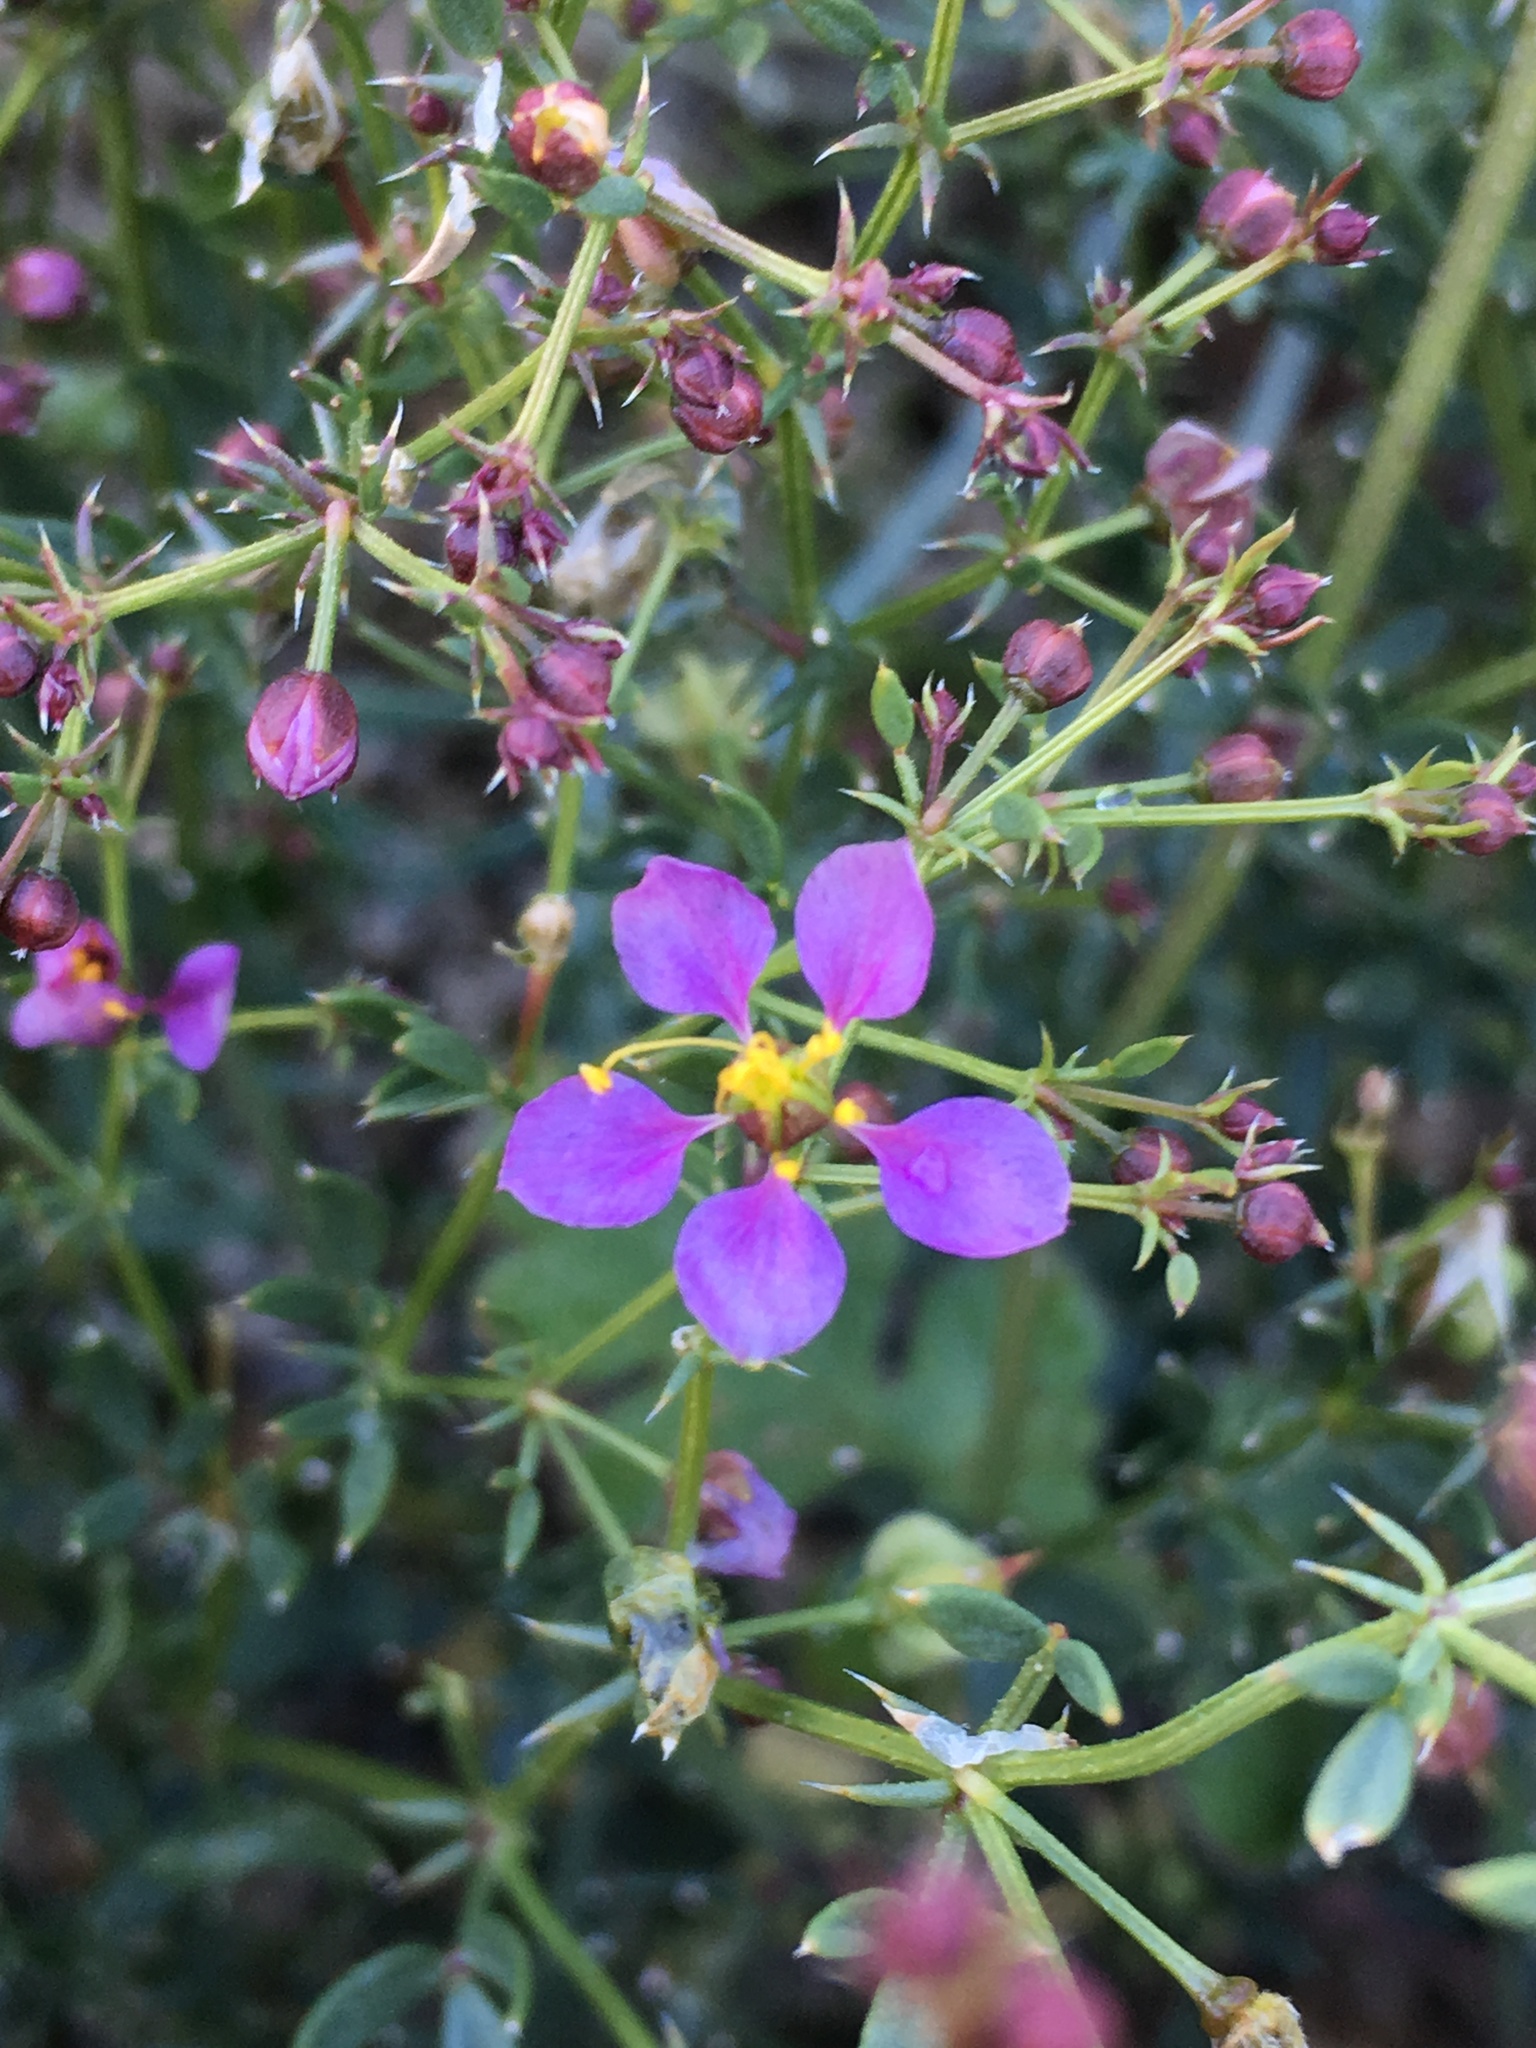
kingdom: Plantae
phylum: Tracheophyta
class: Magnoliopsida
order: Zygophyllales
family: Zygophyllaceae
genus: Fagonia
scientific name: Fagonia laevis
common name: California fagonbush
